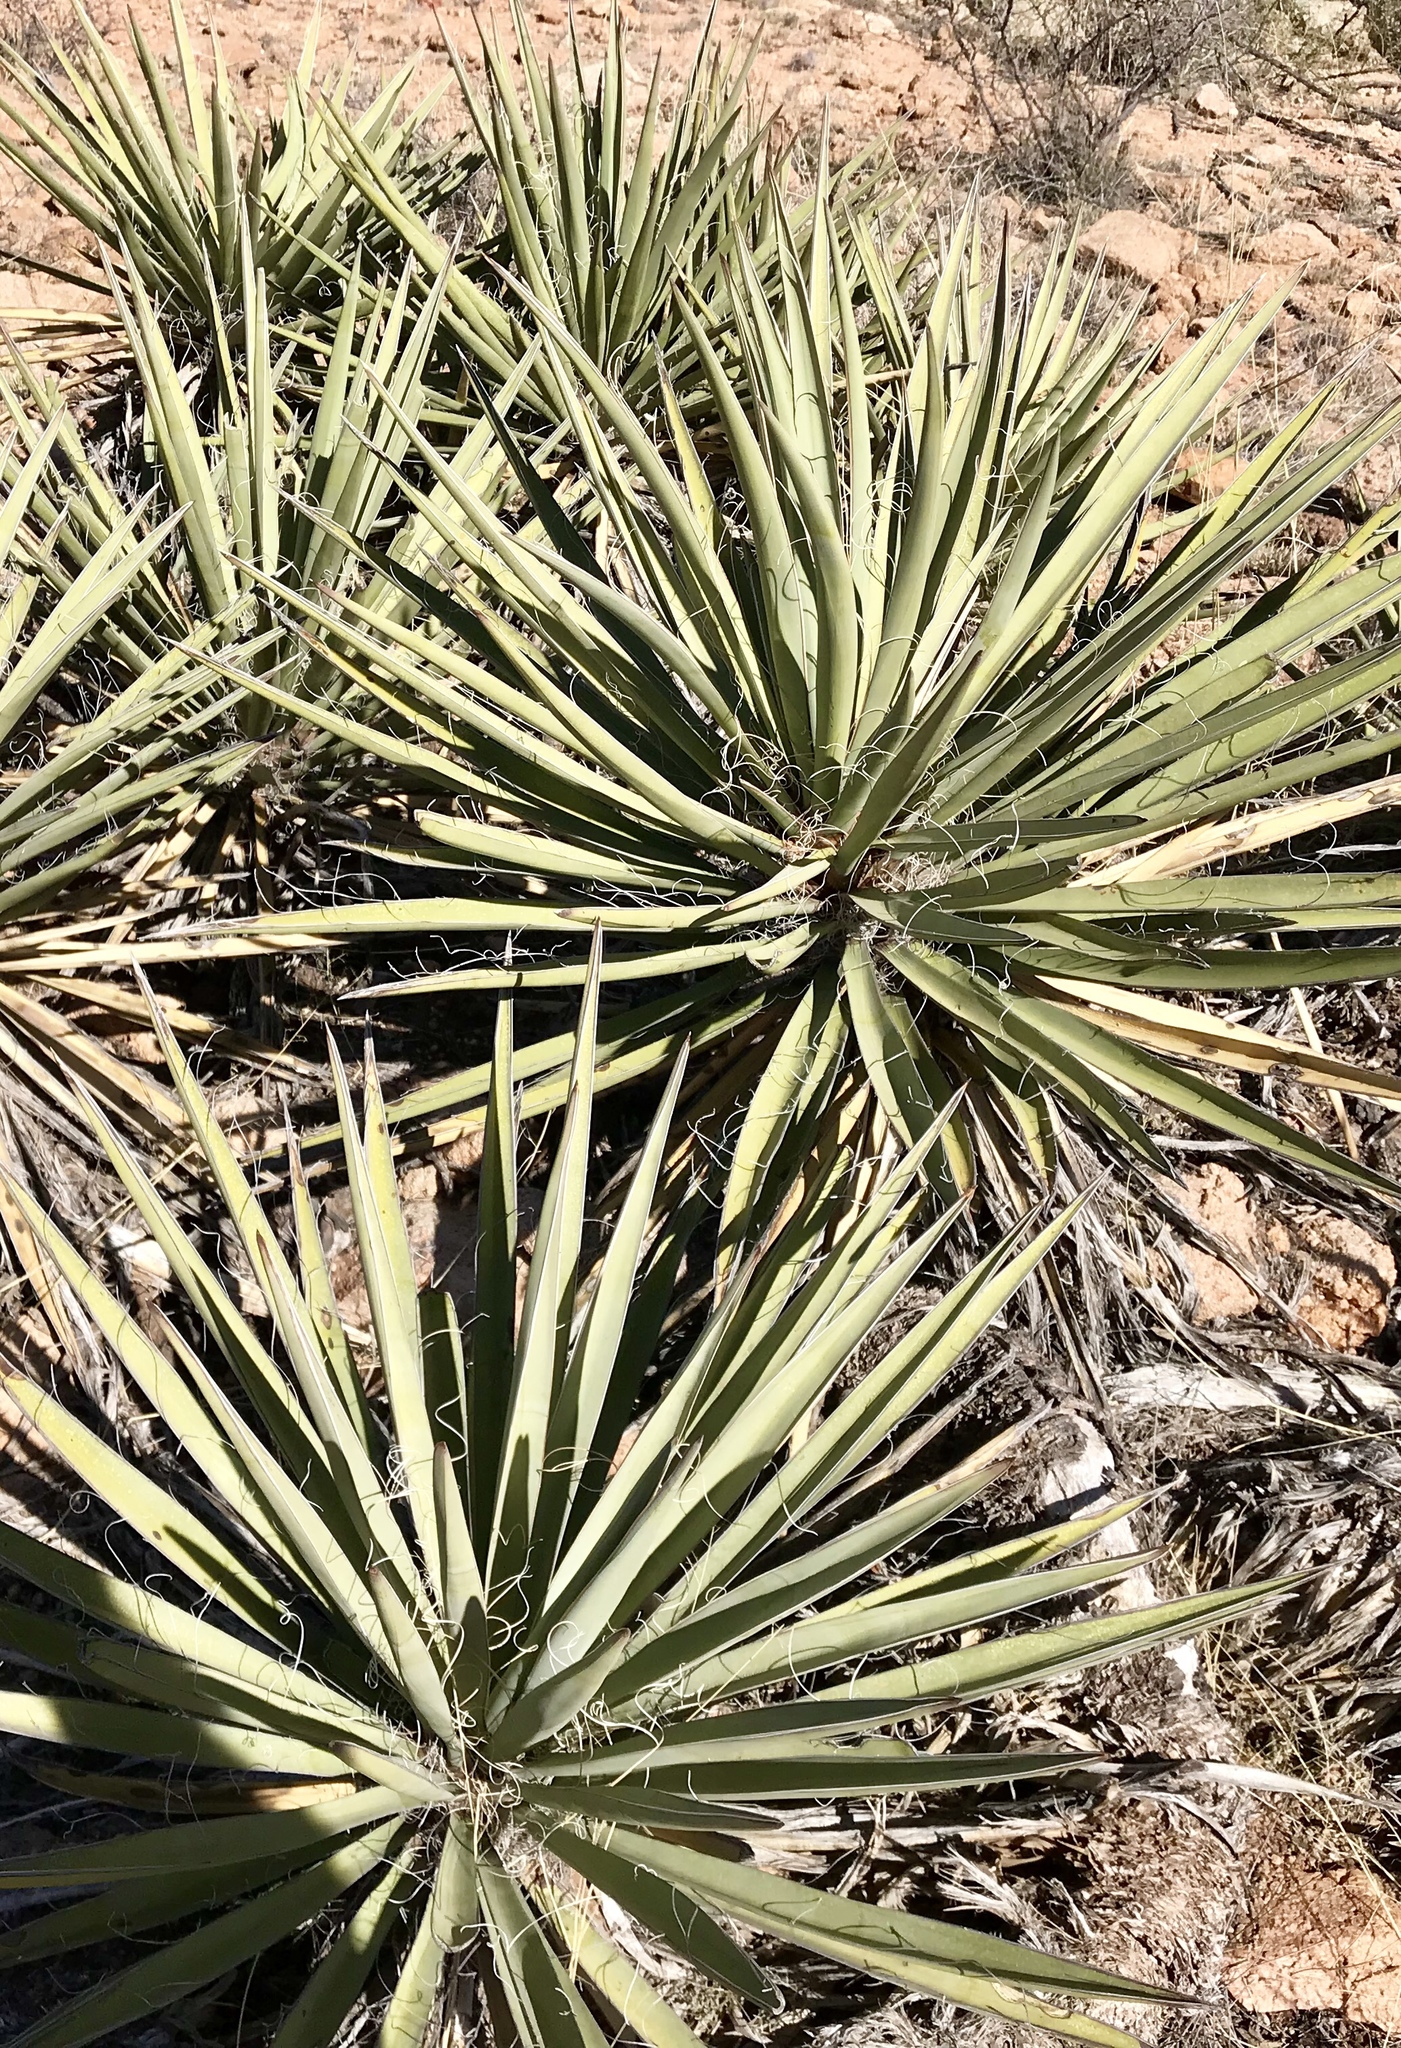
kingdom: Plantae
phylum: Tracheophyta
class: Liliopsida
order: Asparagales
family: Asparagaceae
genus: Yucca
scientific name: Yucca baccata
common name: Banana yucca
